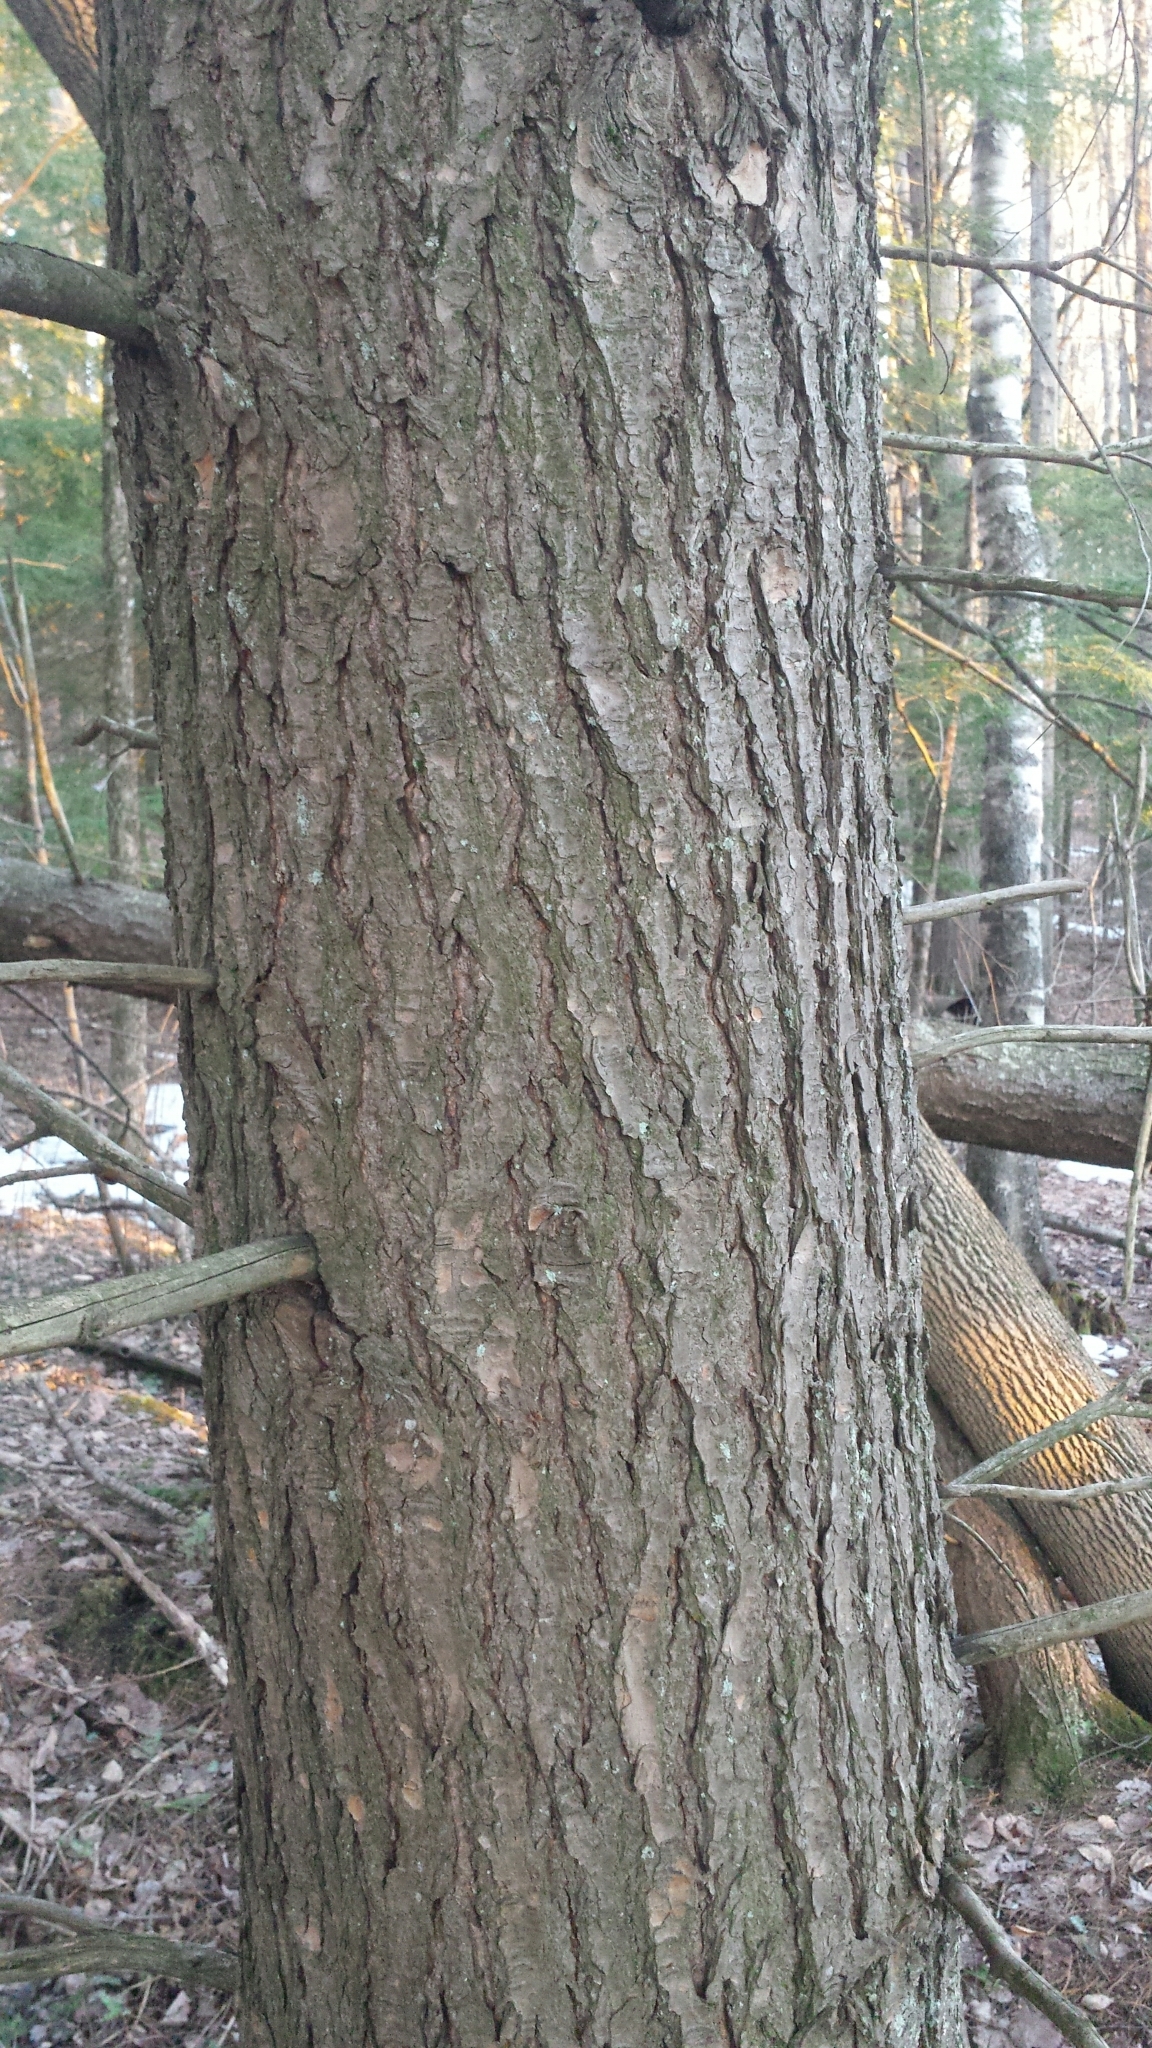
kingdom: Plantae
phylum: Tracheophyta
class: Pinopsida
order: Pinales
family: Pinaceae
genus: Tsuga
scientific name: Tsuga canadensis
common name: Eastern hemlock
